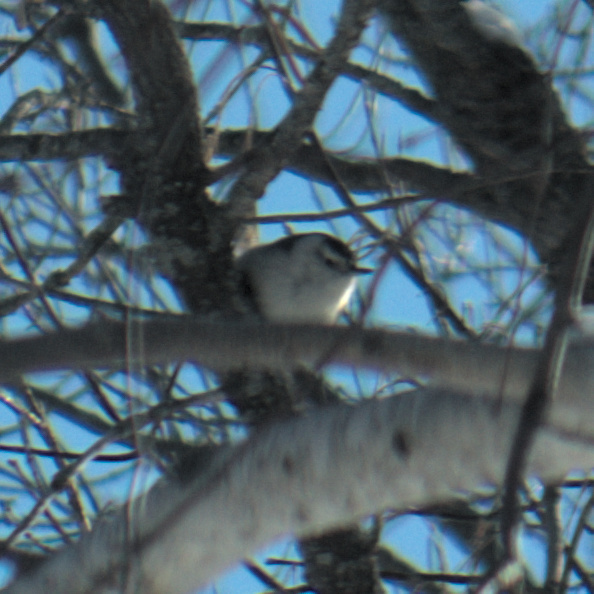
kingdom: Animalia
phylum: Chordata
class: Aves
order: Passeriformes
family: Sittidae
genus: Sitta
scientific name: Sitta carolinensis
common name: White-breasted nuthatch
